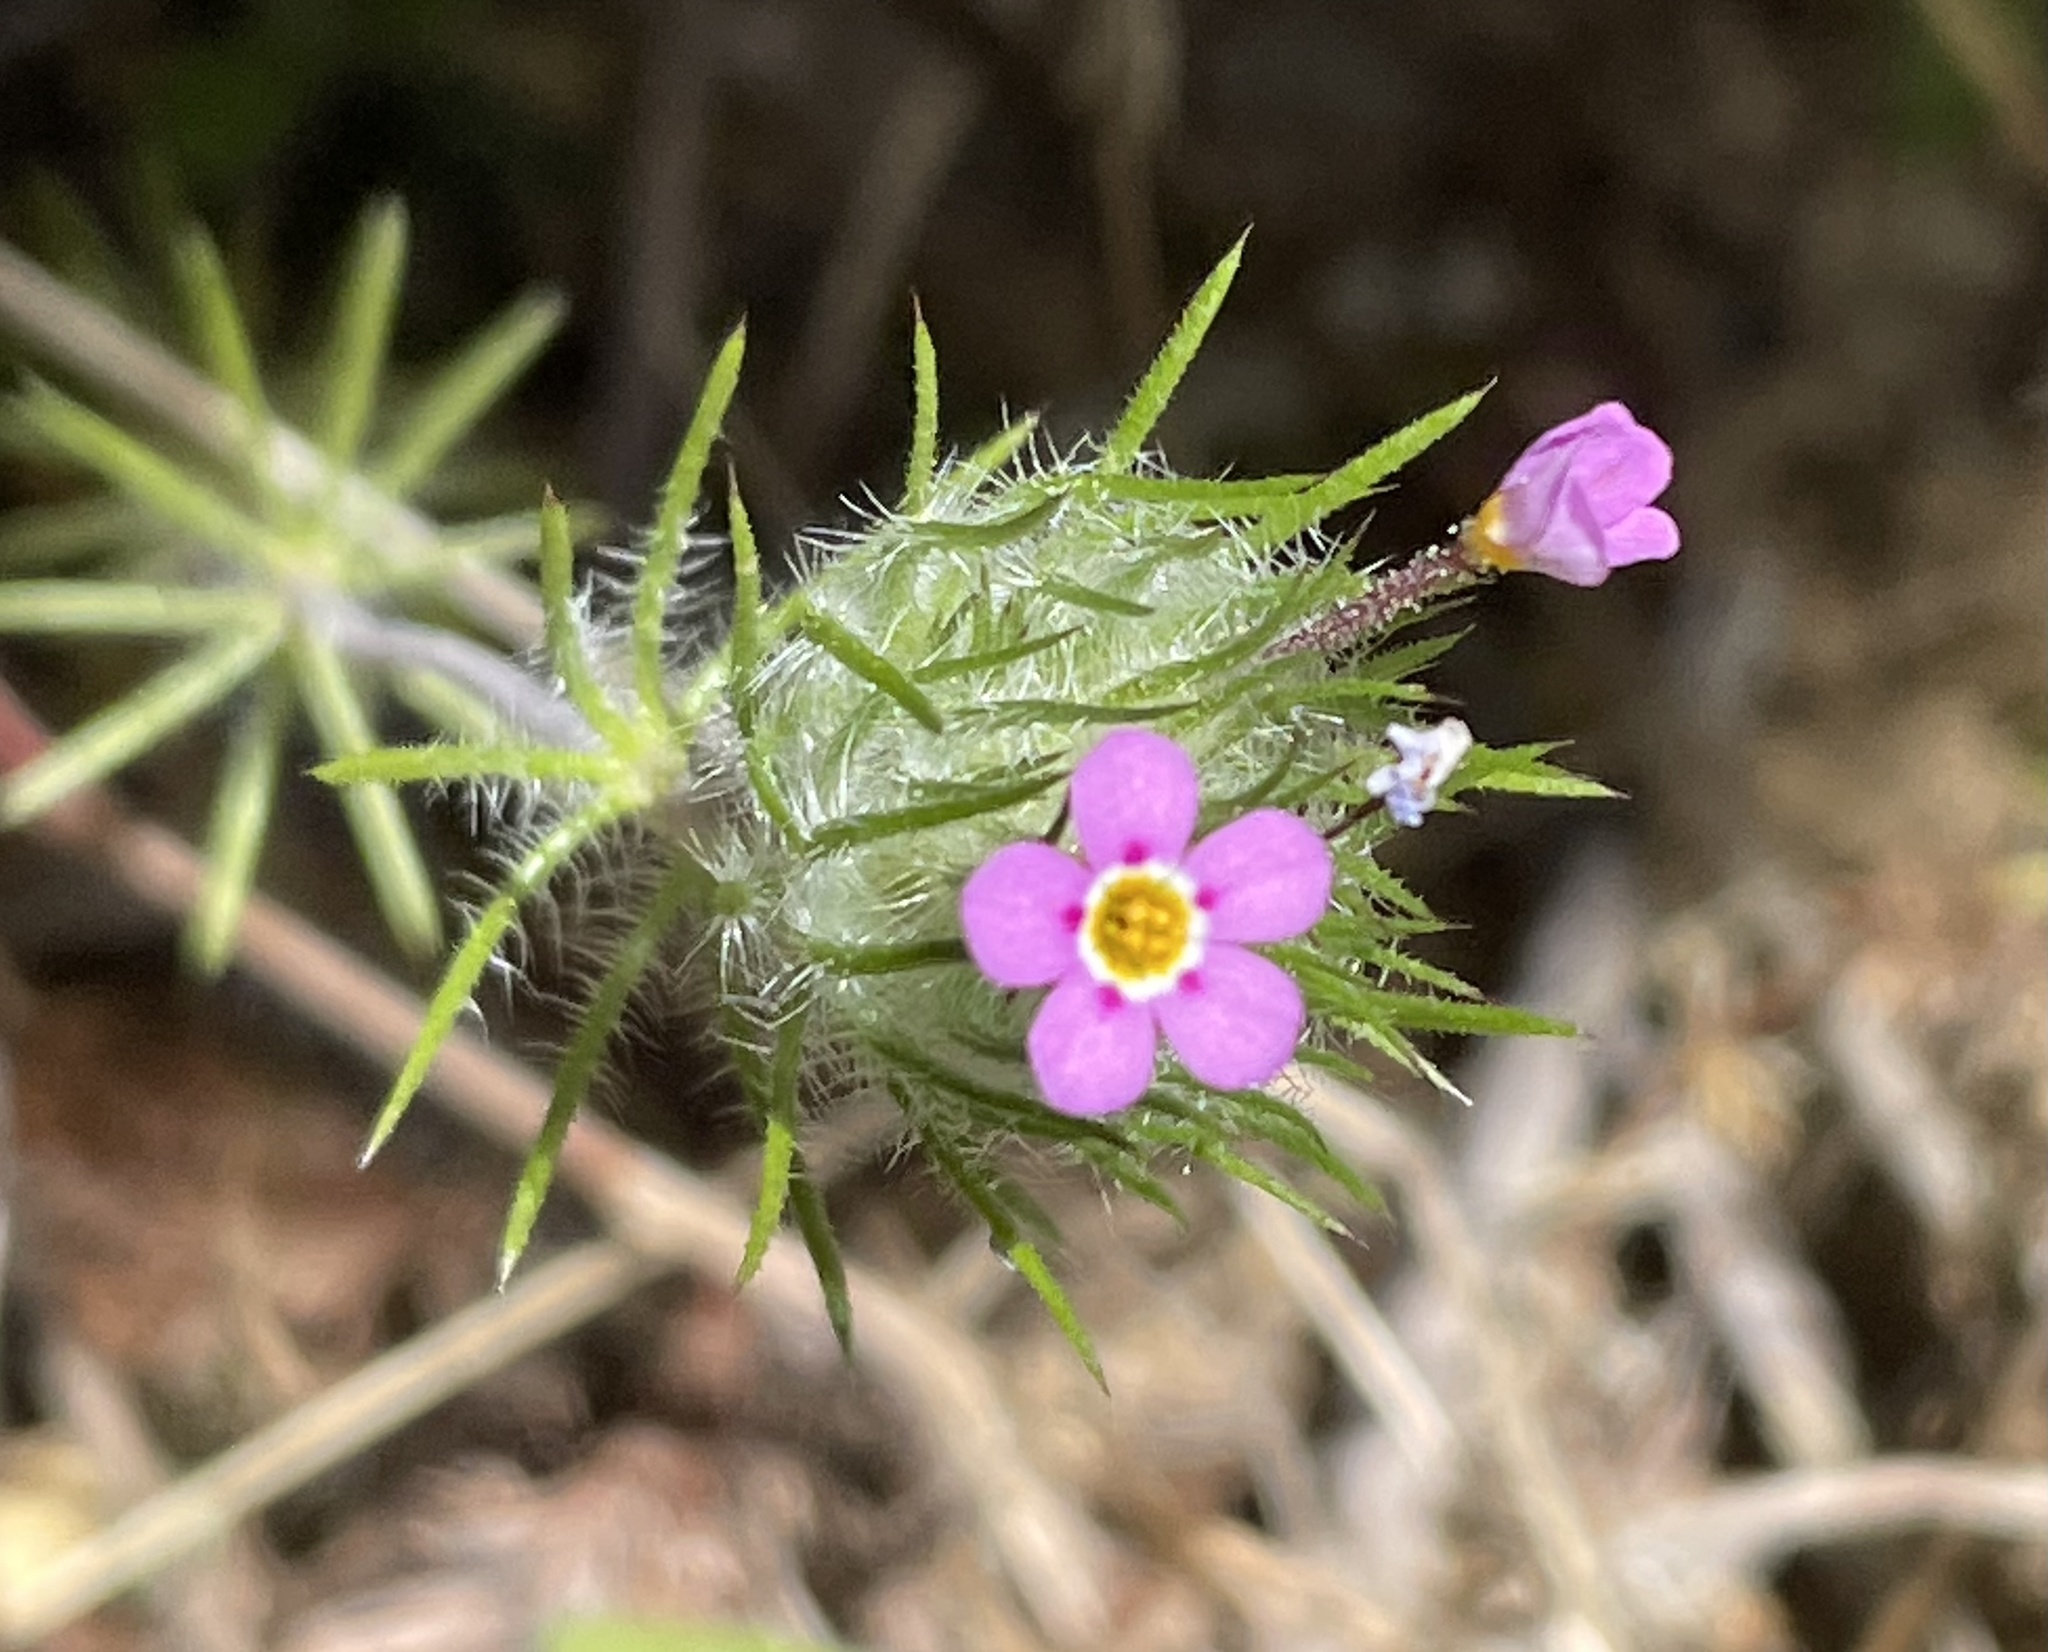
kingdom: Plantae
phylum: Tracheophyta
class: Magnoliopsida
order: Ericales
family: Polemoniaceae
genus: Leptosiphon
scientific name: Leptosiphon ciliatus
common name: Whiskerbrush
